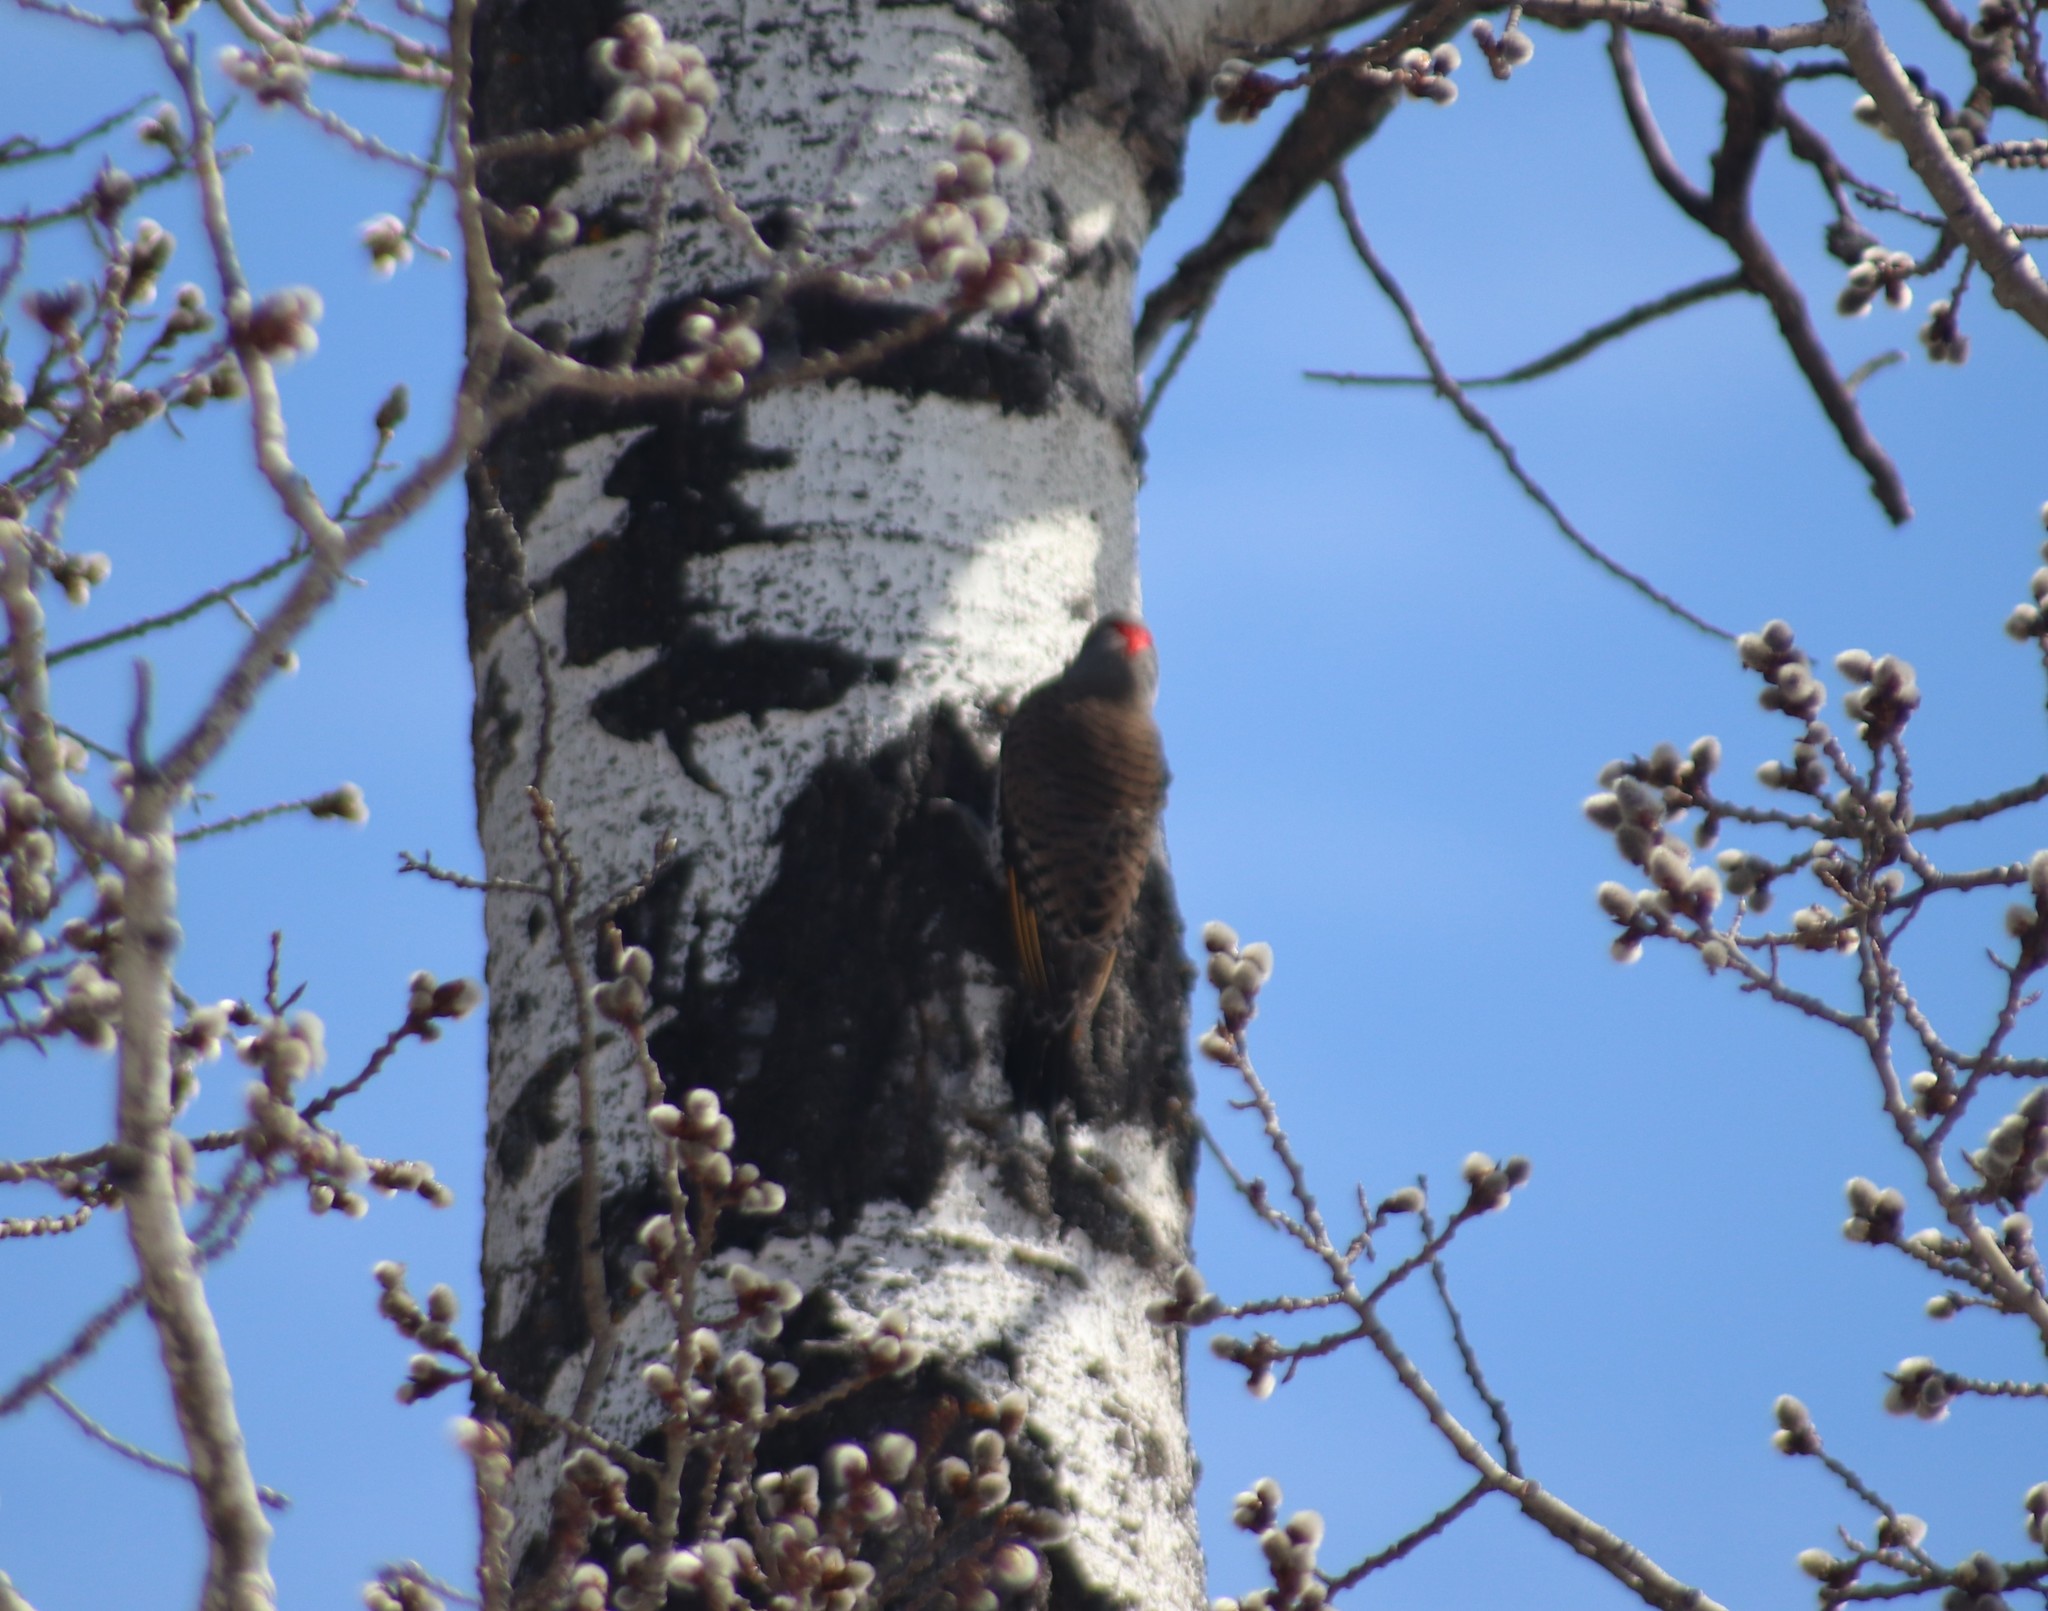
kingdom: Animalia
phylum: Chordata
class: Aves
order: Piciformes
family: Picidae
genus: Colaptes
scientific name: Colaptes auratus
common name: Northern flicker
